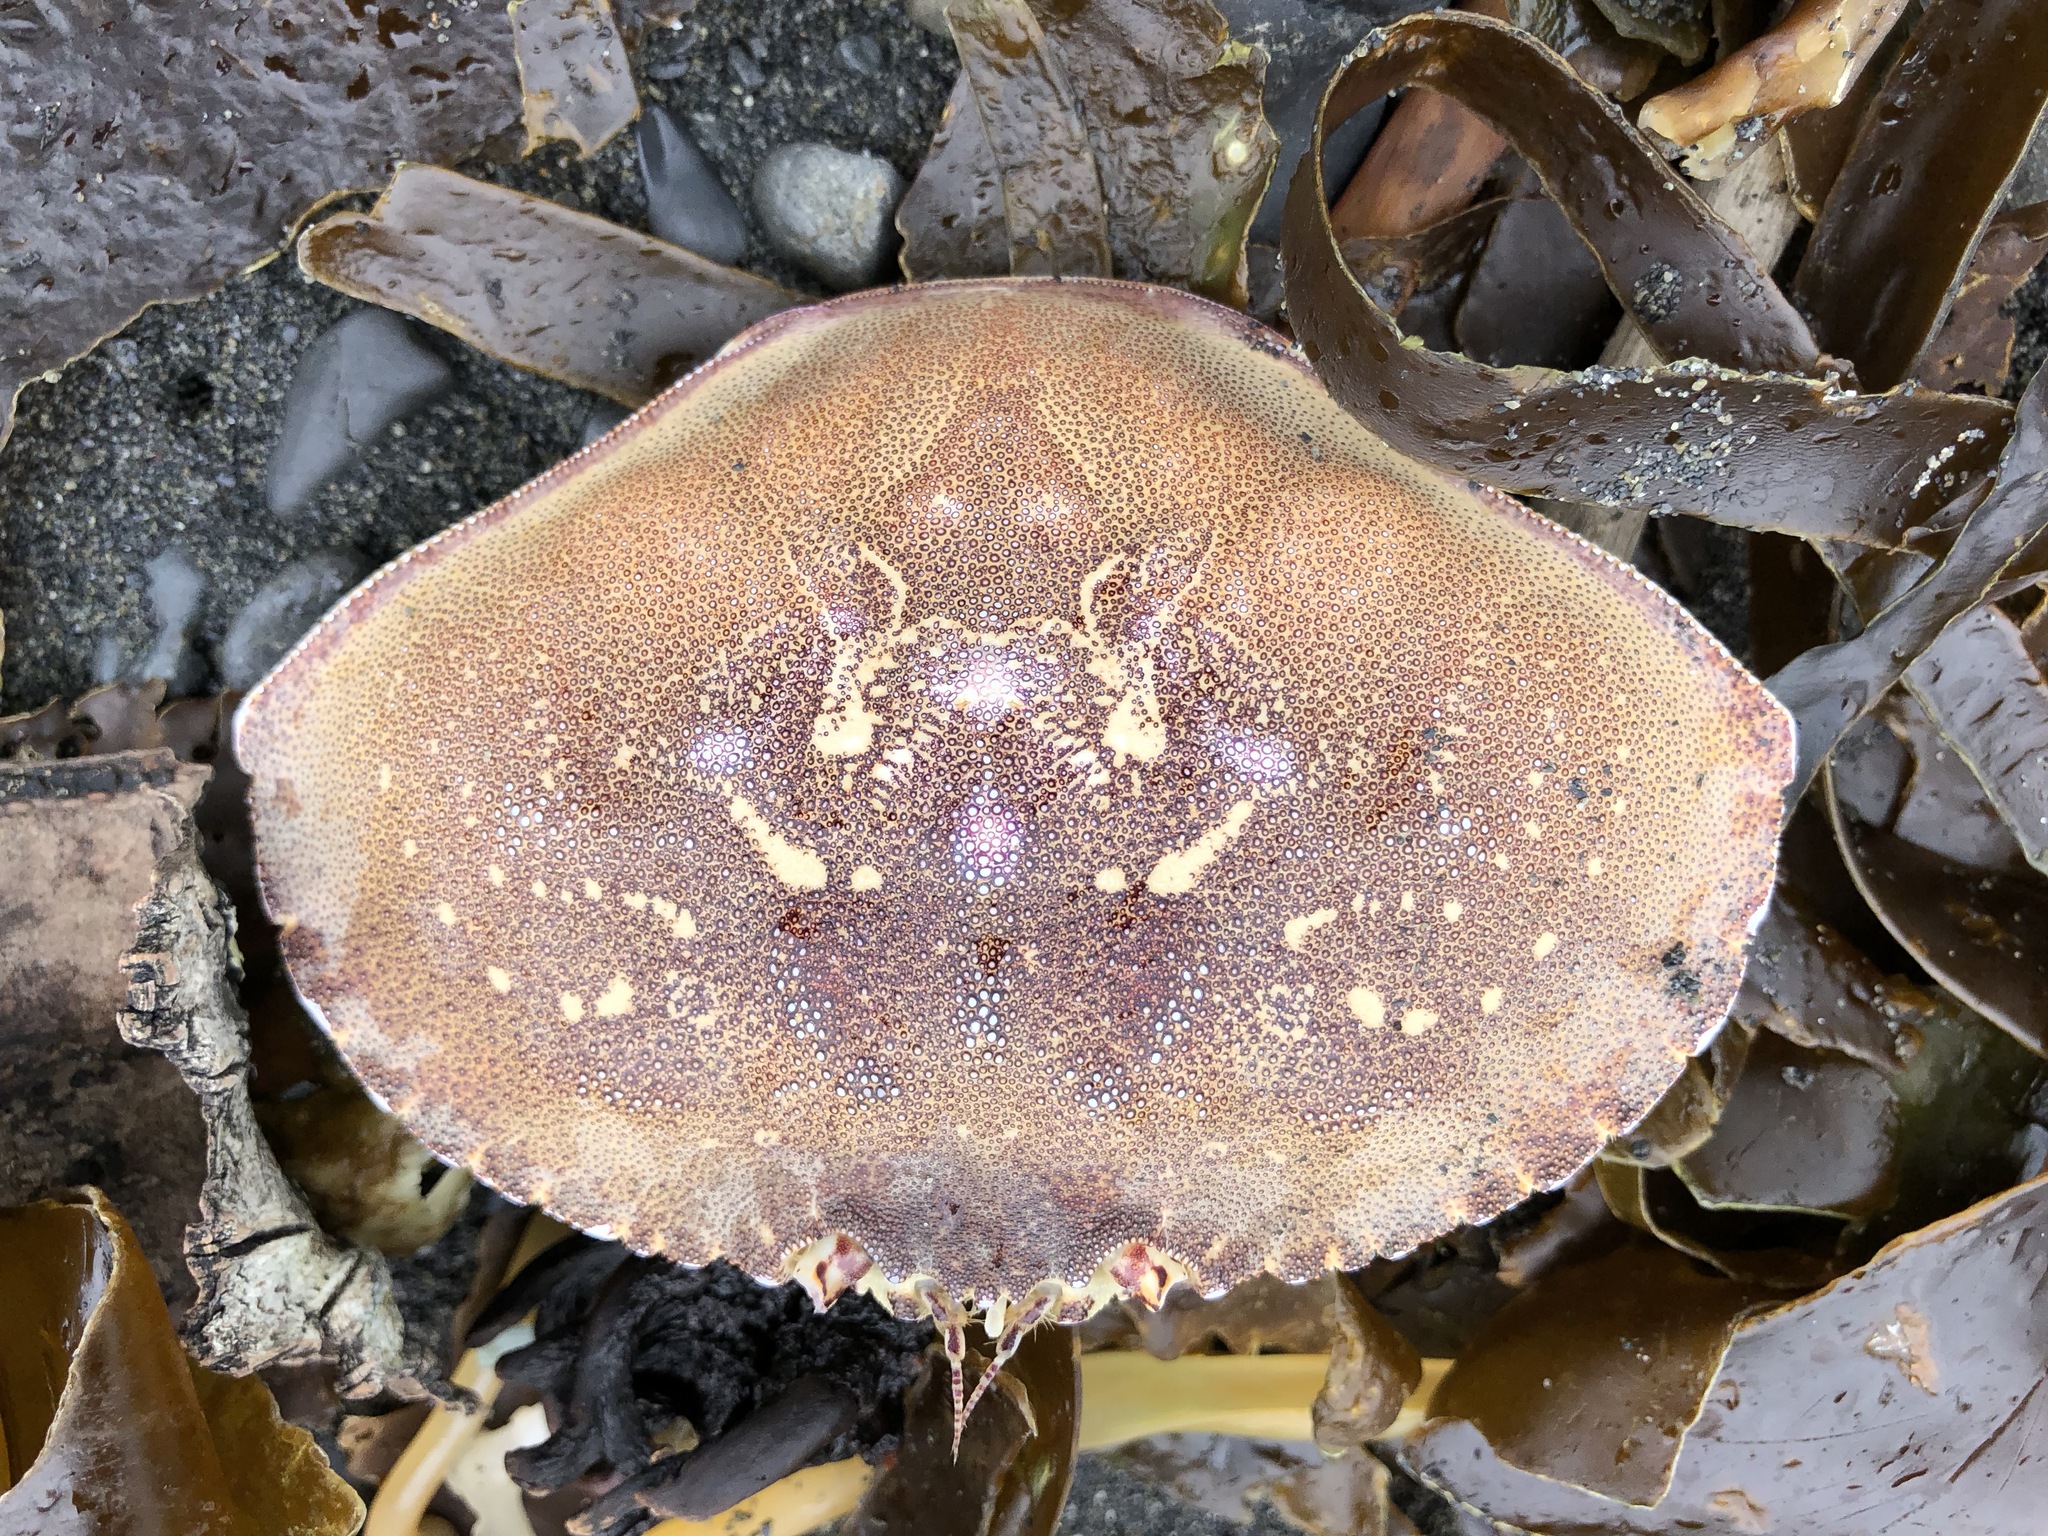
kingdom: Animalia
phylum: Arthropoda
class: Malacostraca
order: Decapoda
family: Cancridae
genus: Metacarcinus
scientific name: Metacarcinus magister
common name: Californian crab
